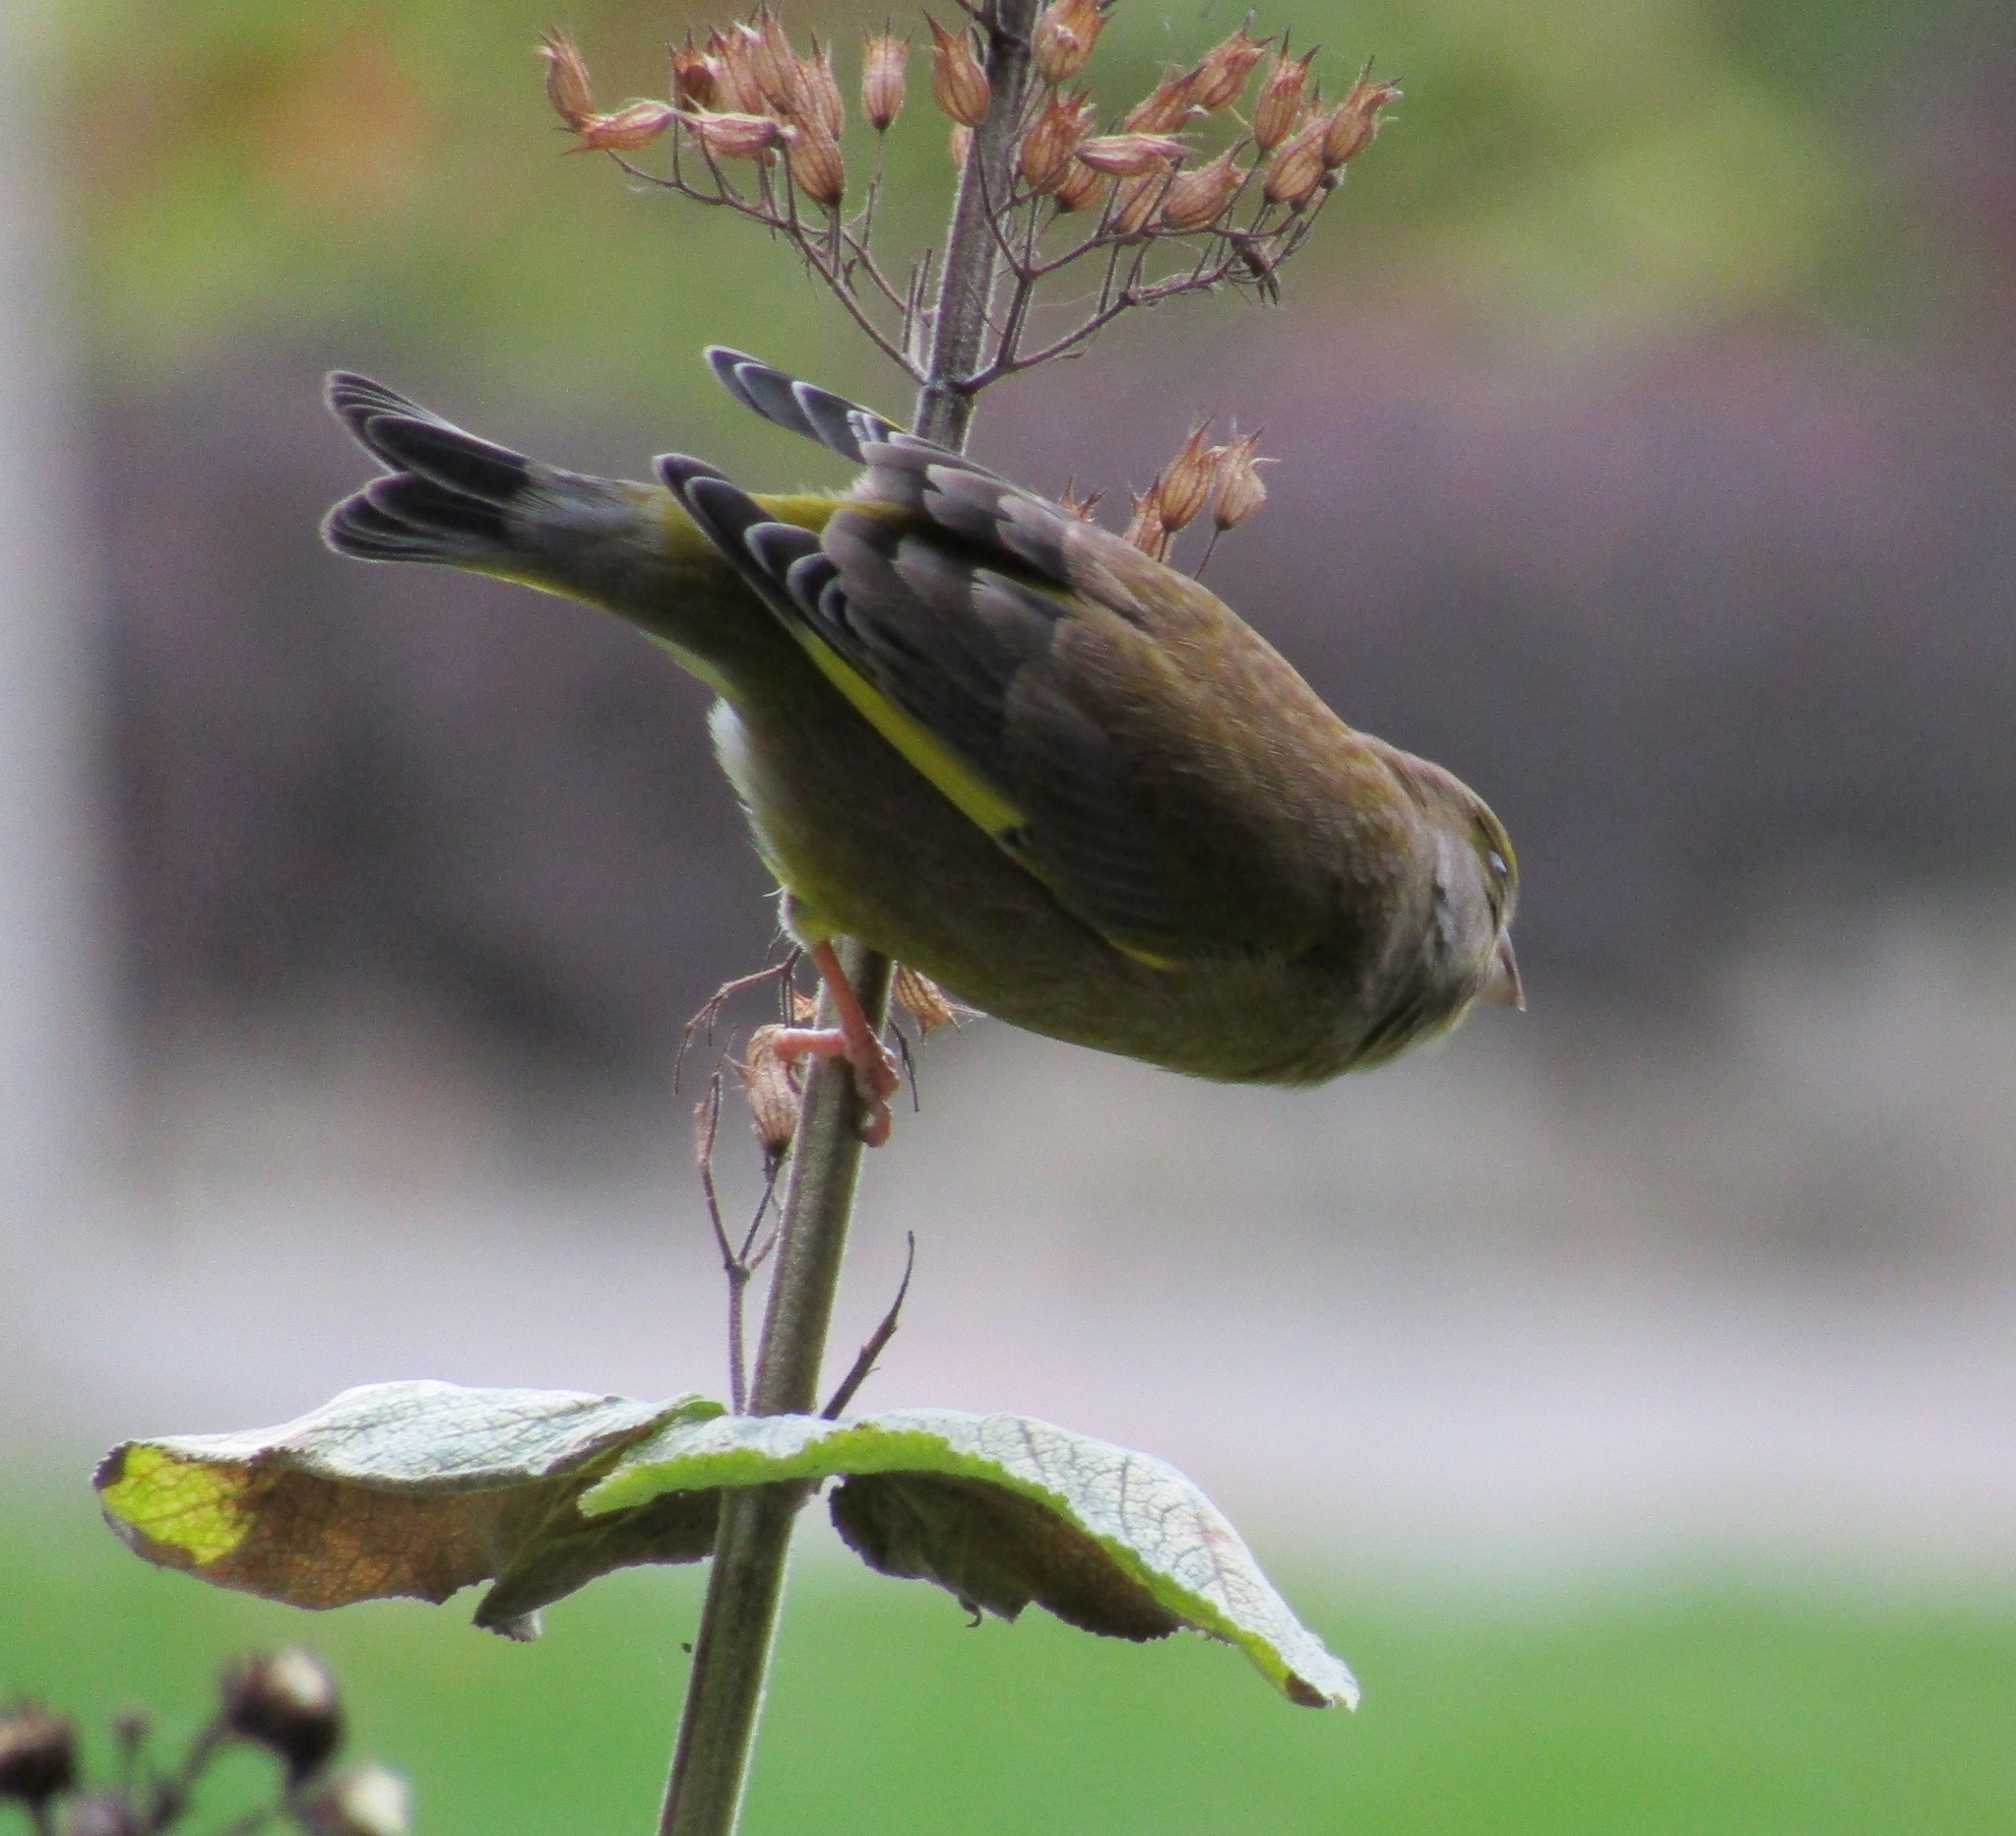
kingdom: Plantae
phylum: Tracheophyta
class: Liliopsida
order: Poales
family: Poaceae
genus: Chloris
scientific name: Chloris chloris
